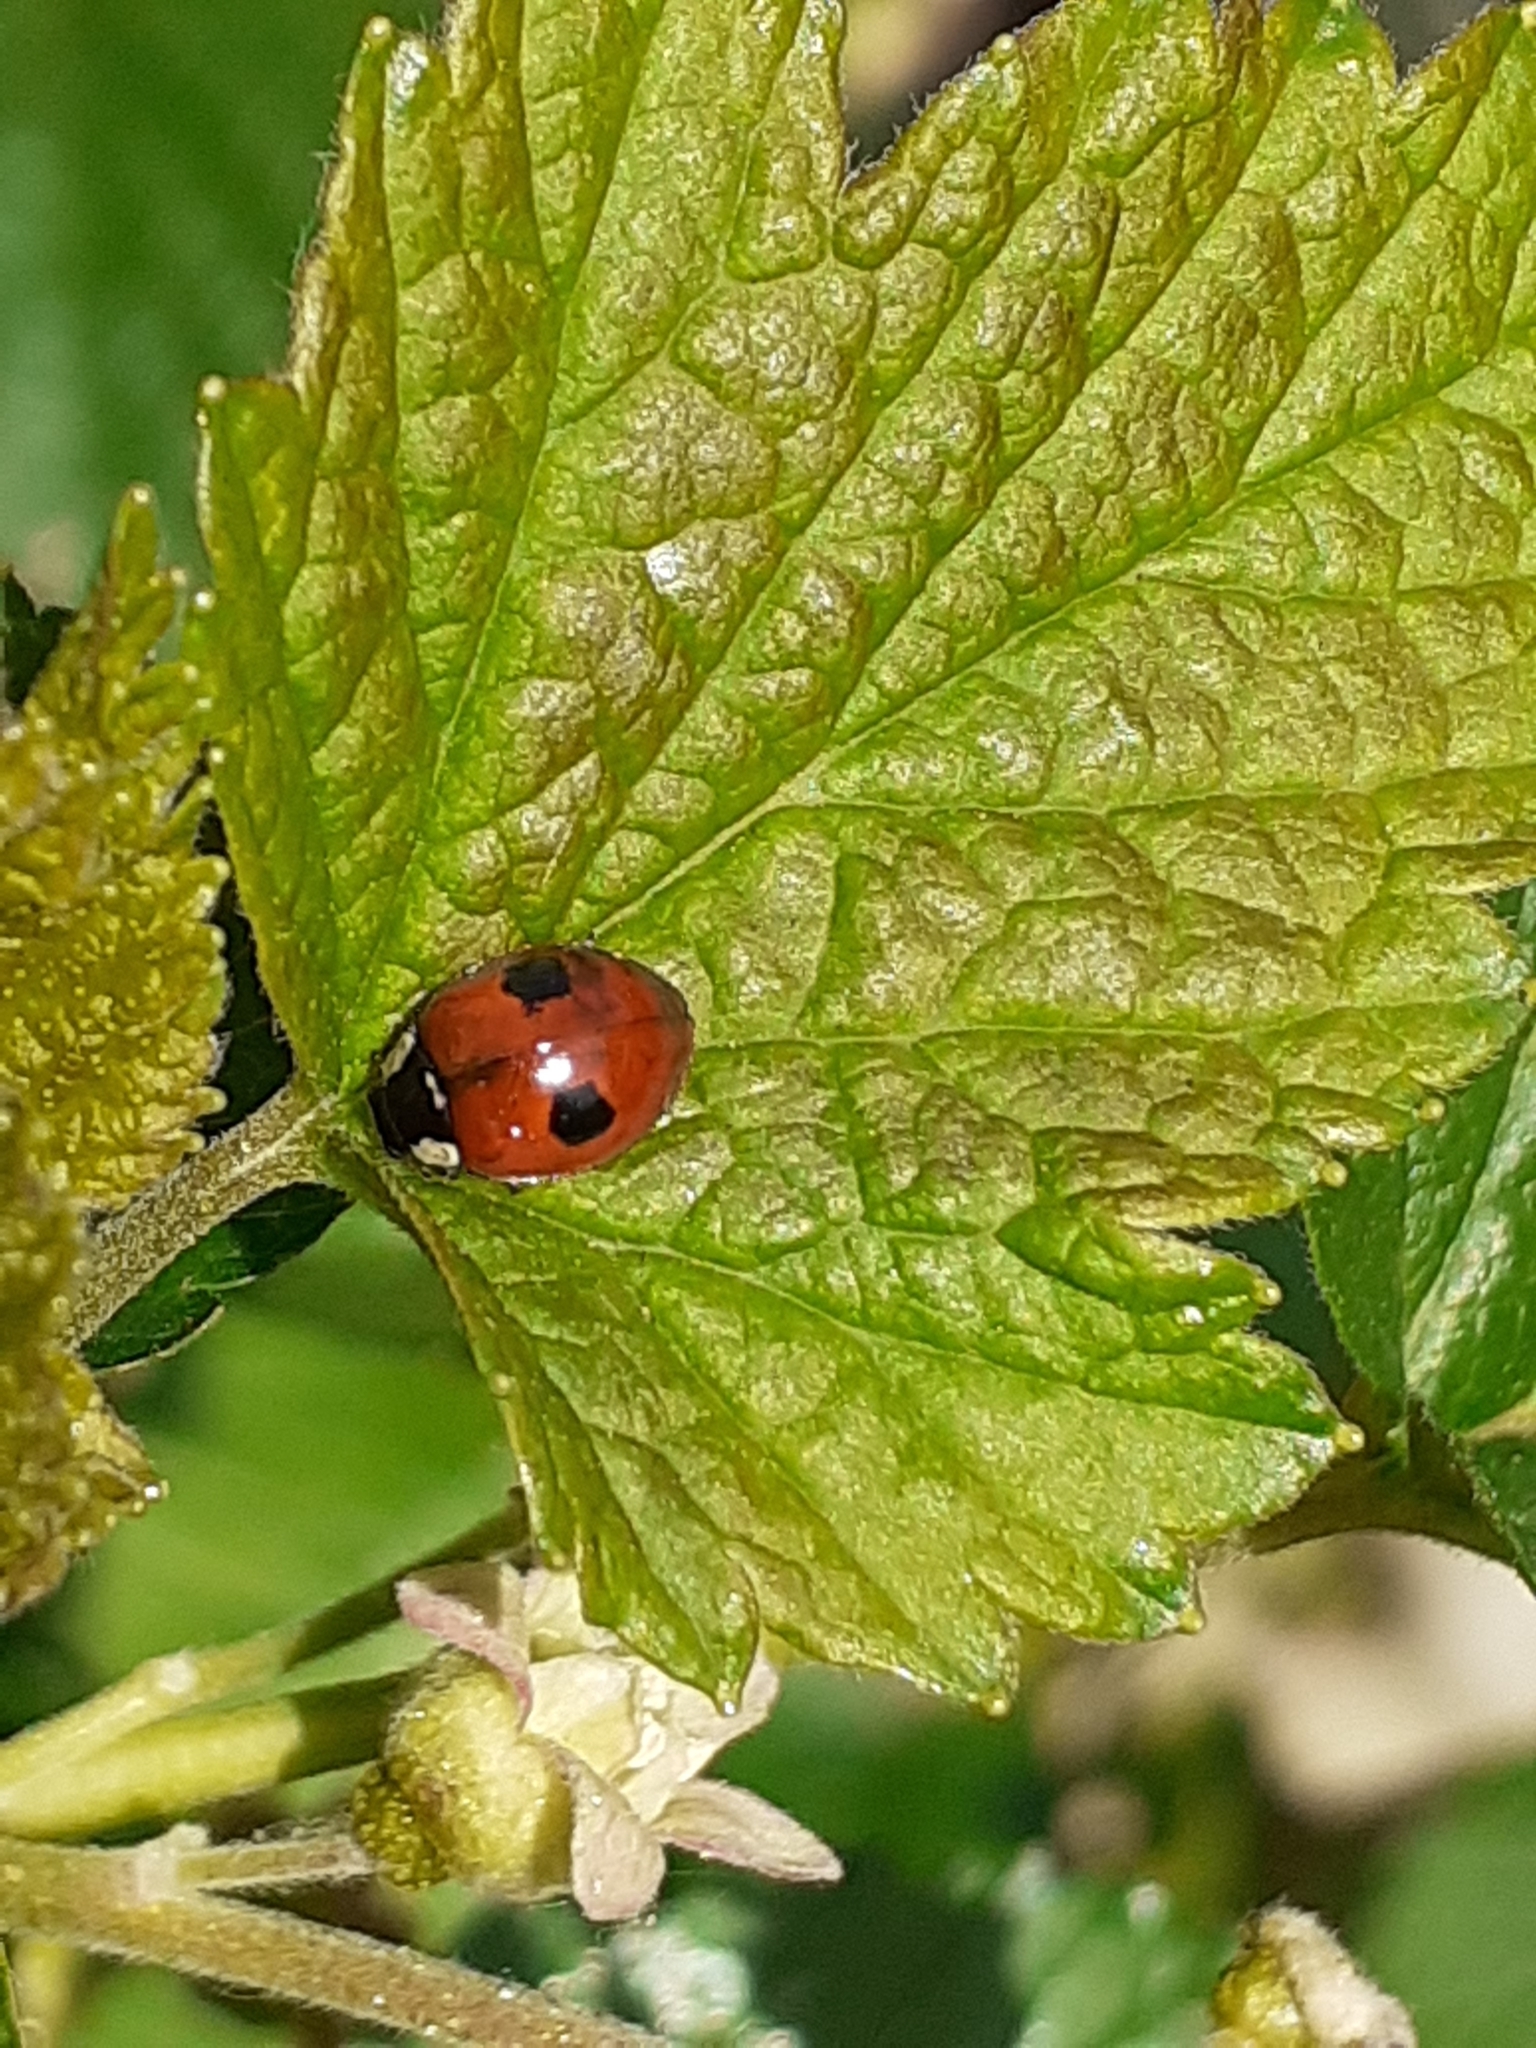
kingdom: Animalia
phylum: Arthropoda
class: Insecta
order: Coleoptera
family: Coccinellidae
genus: Adalia
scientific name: Adalia bipunctata
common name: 2-spot ladybird
